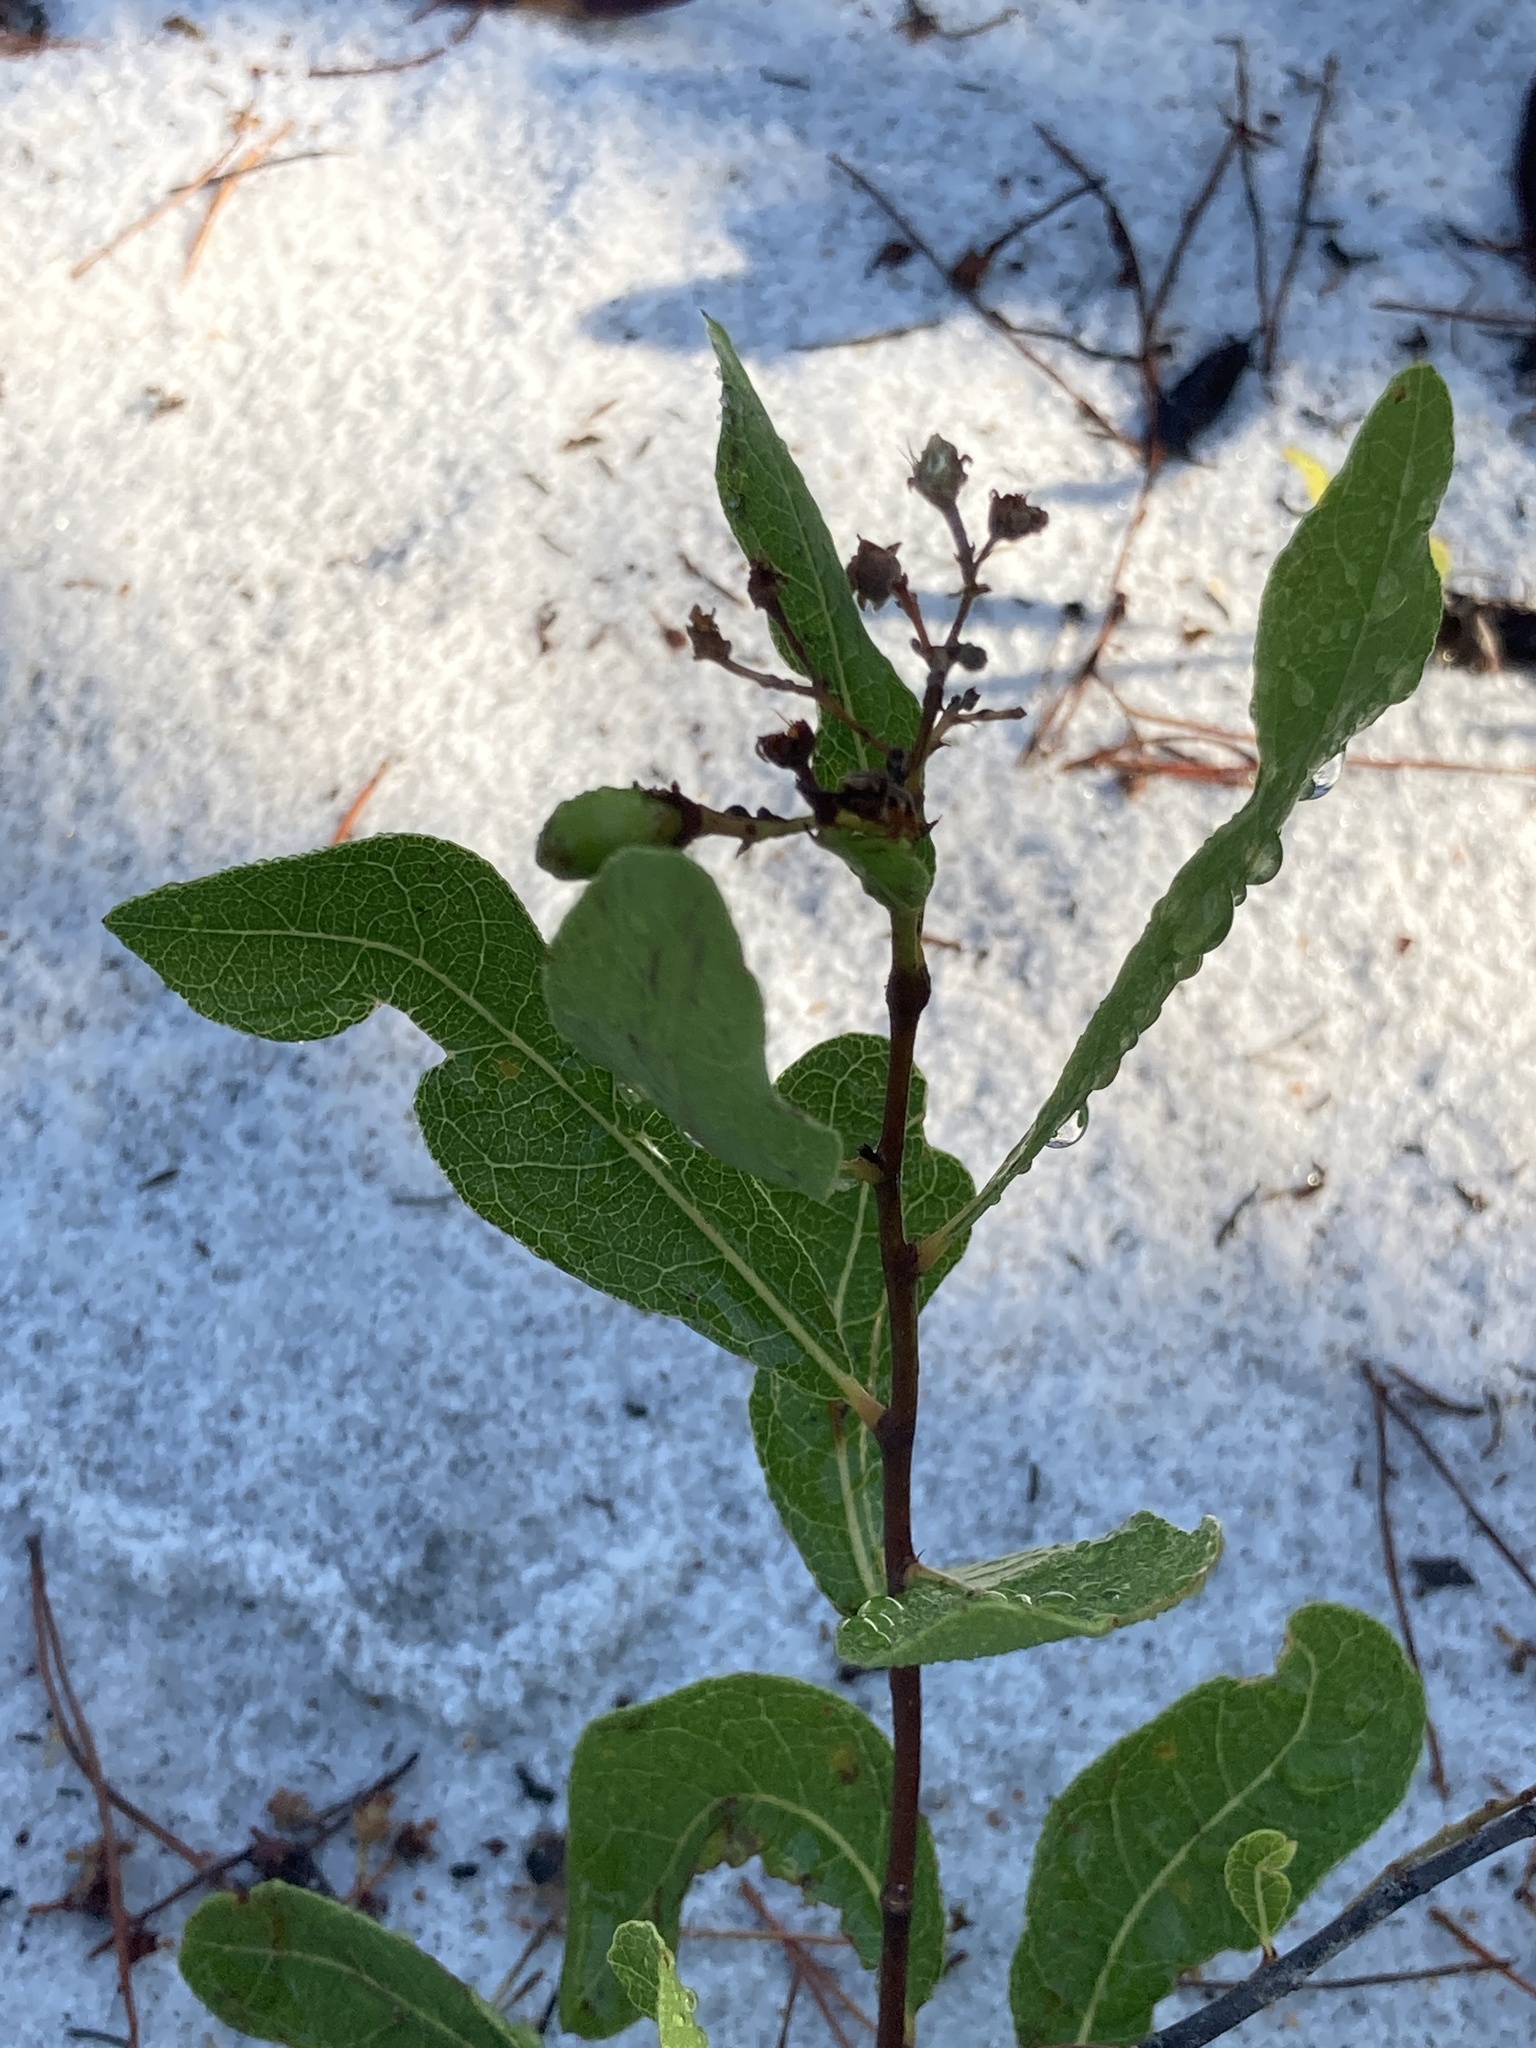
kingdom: Plantae
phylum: Tracheophyta
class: Magnoliopsida
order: Malpighiales
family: Chrysobalanaceae
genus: Geobalanus
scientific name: Geobalanus oblongifolius
